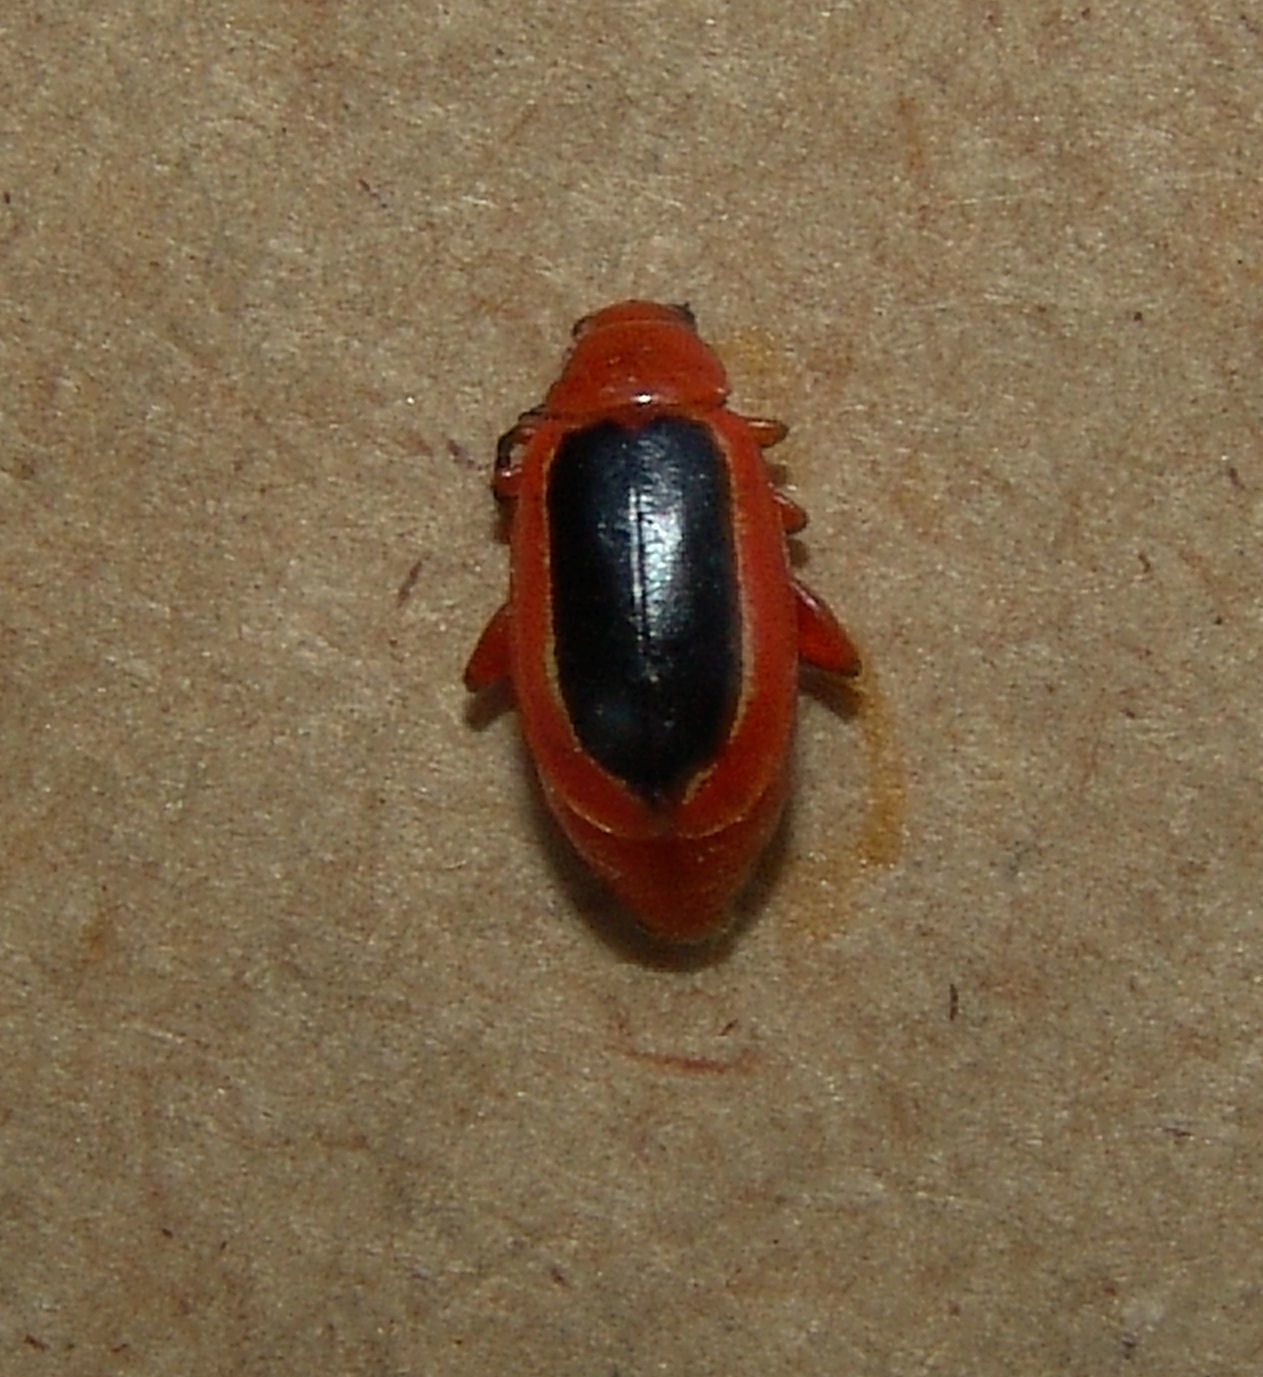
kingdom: Animalia
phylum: Arthropoda
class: Insecta
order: Coleoptera
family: Chrysomelidae
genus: Disonycha
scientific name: Disonycha discoidea
